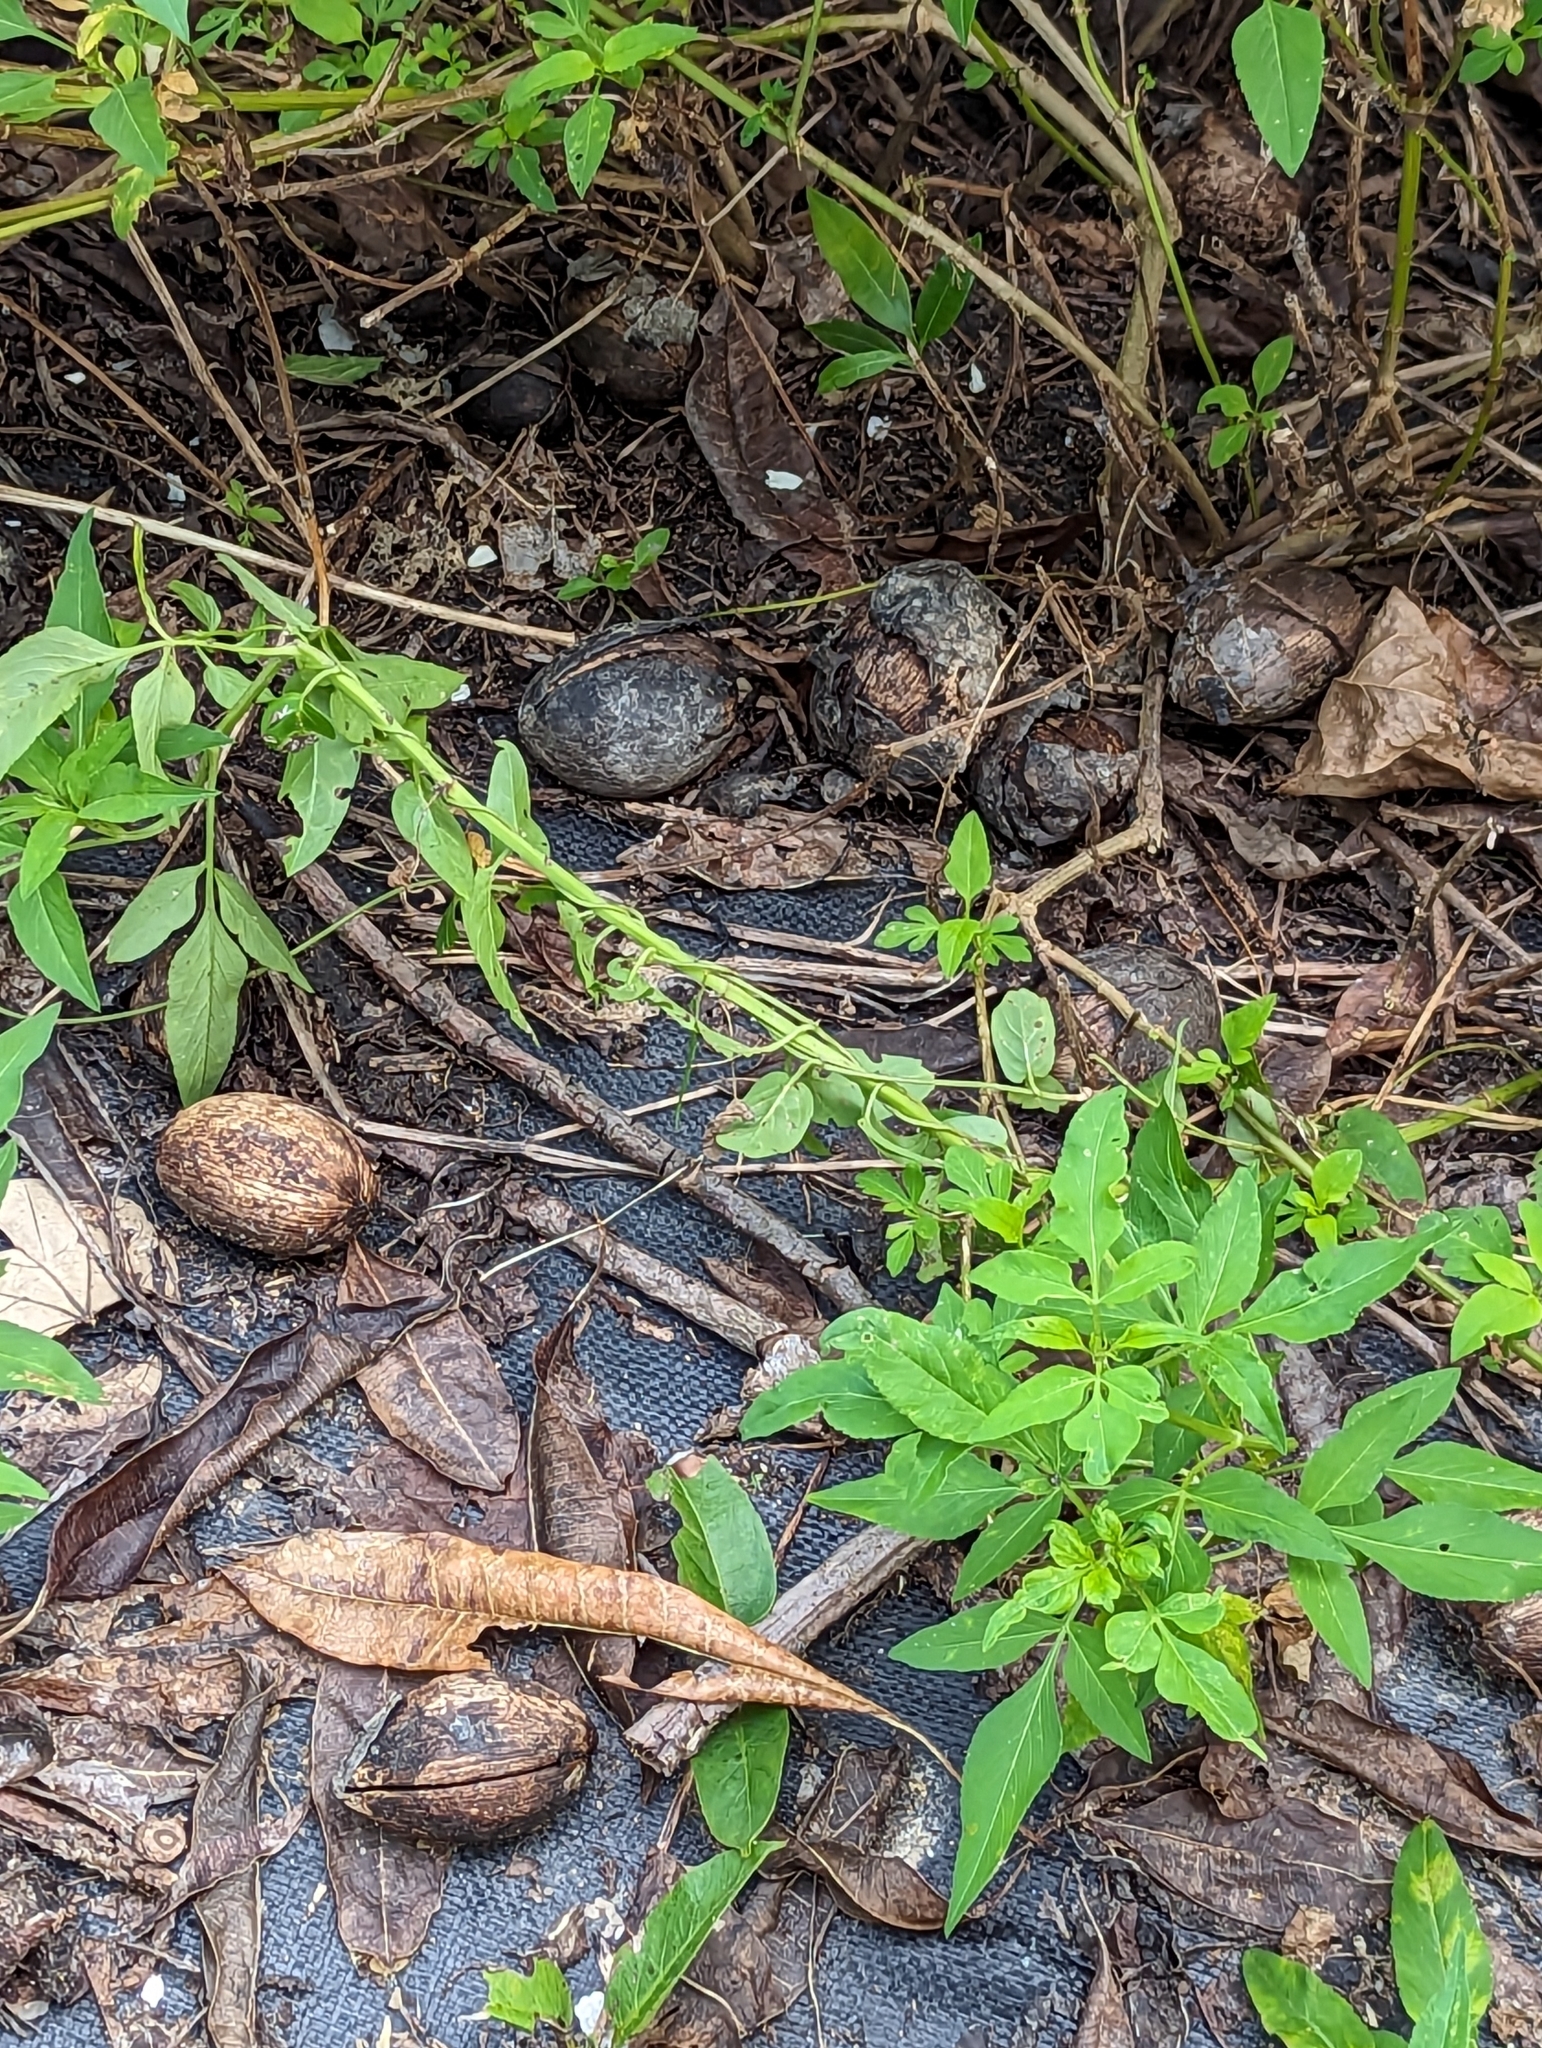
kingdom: Plantae
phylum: Tracheophyta
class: Magnoliopsida
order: Gentianales
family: Apocynaceae
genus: Cerbera
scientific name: Cerbera manghas
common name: Reva
